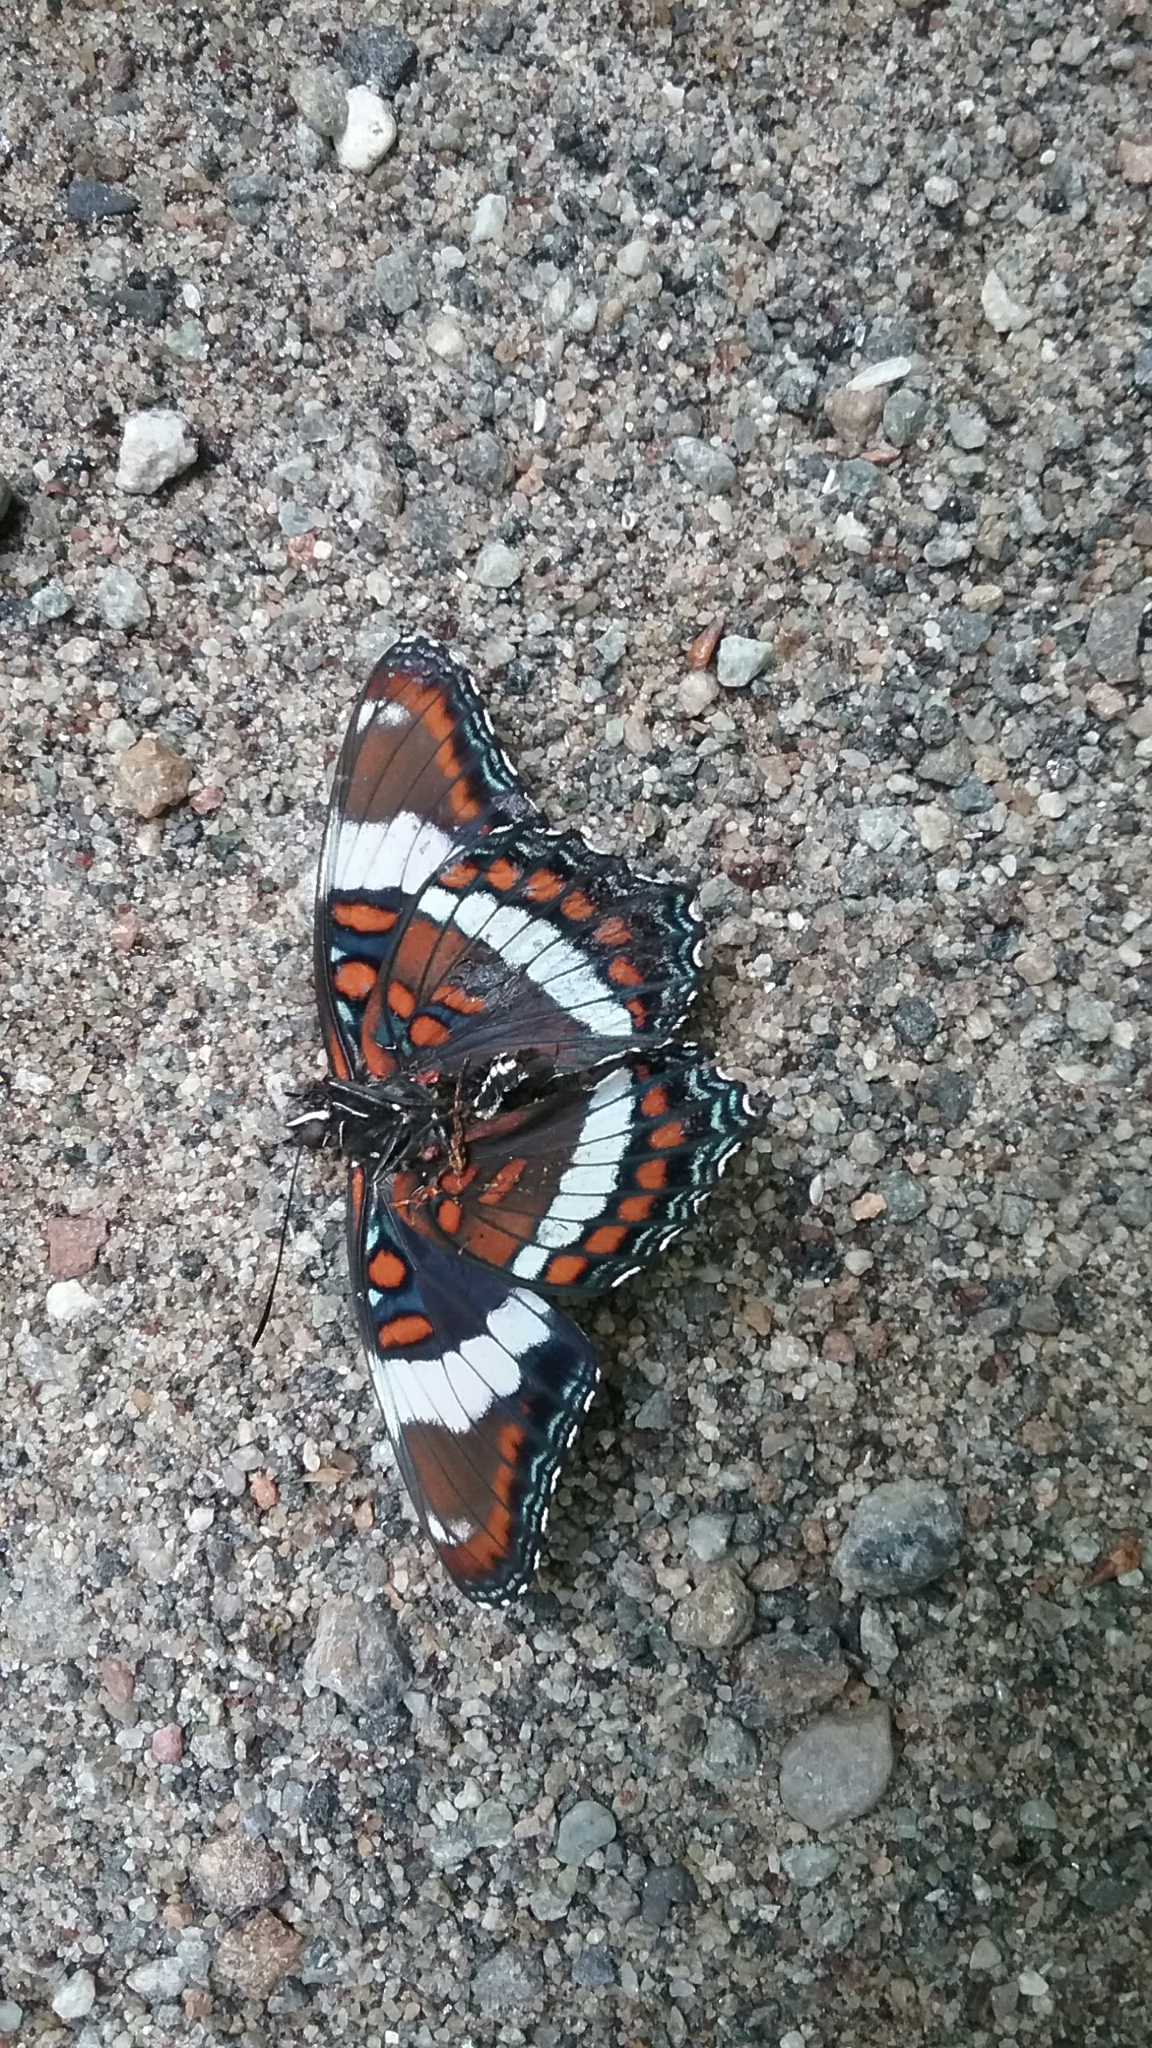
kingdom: Animalia
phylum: Arthropoda
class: Insecta
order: Lepidoptera
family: Nymphalidae
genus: Limenitis
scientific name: Limenitis arthemis
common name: Red-spotted admiral
